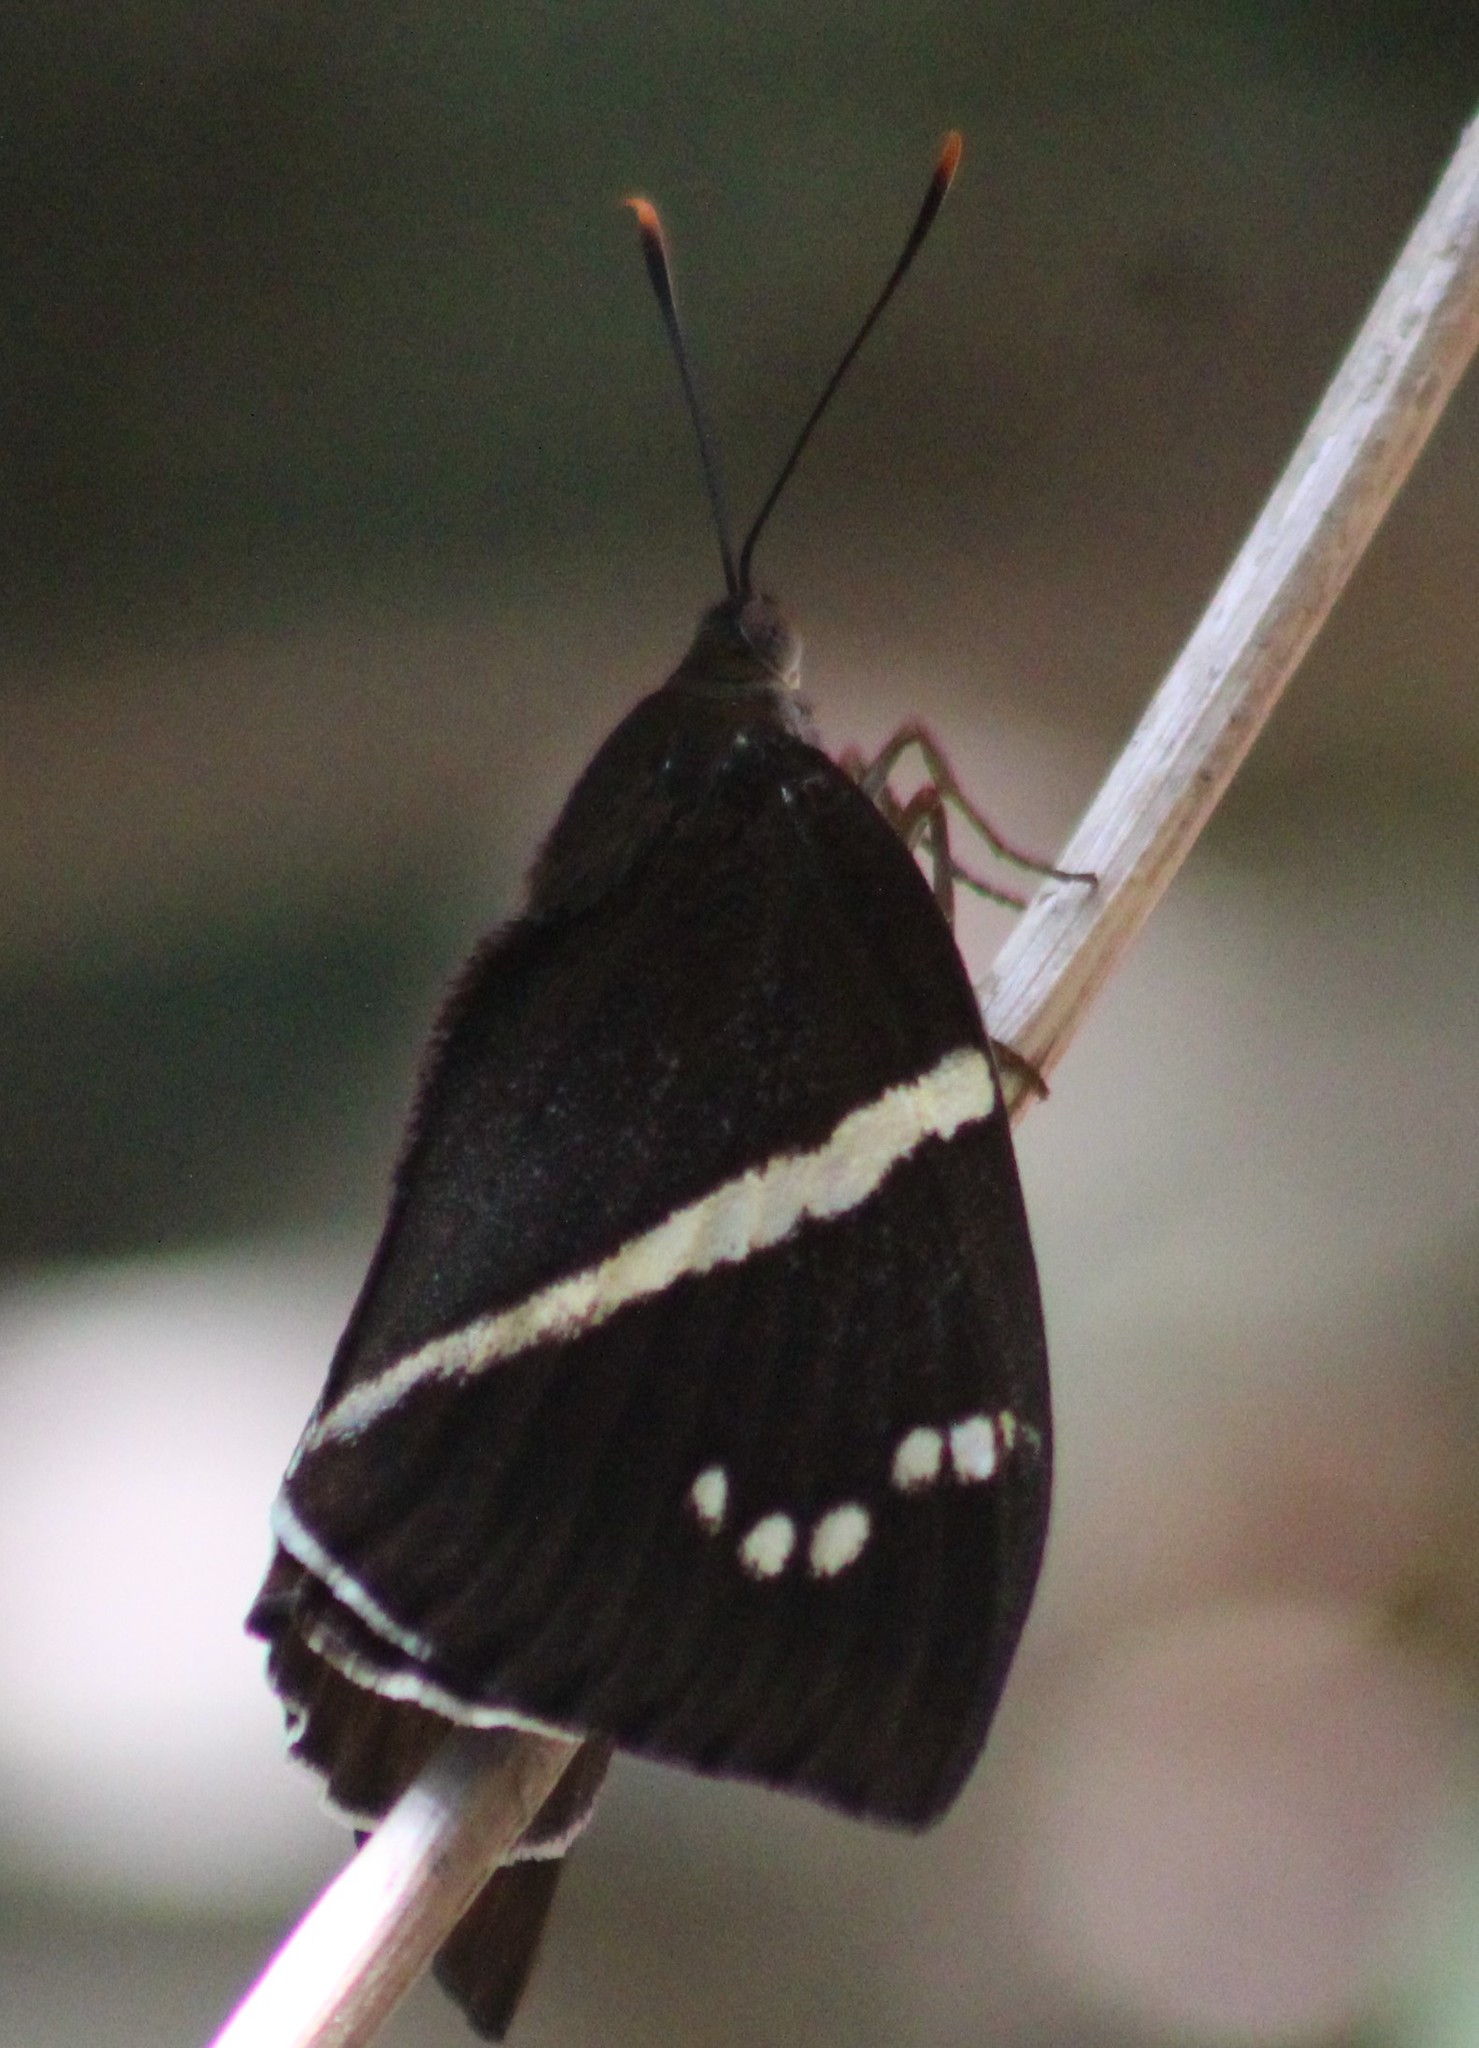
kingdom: Animalia
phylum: Arthropoda
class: Insecta
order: Lepidoptera
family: Castniidae
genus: Castniomera
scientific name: Castniomera atymnius
